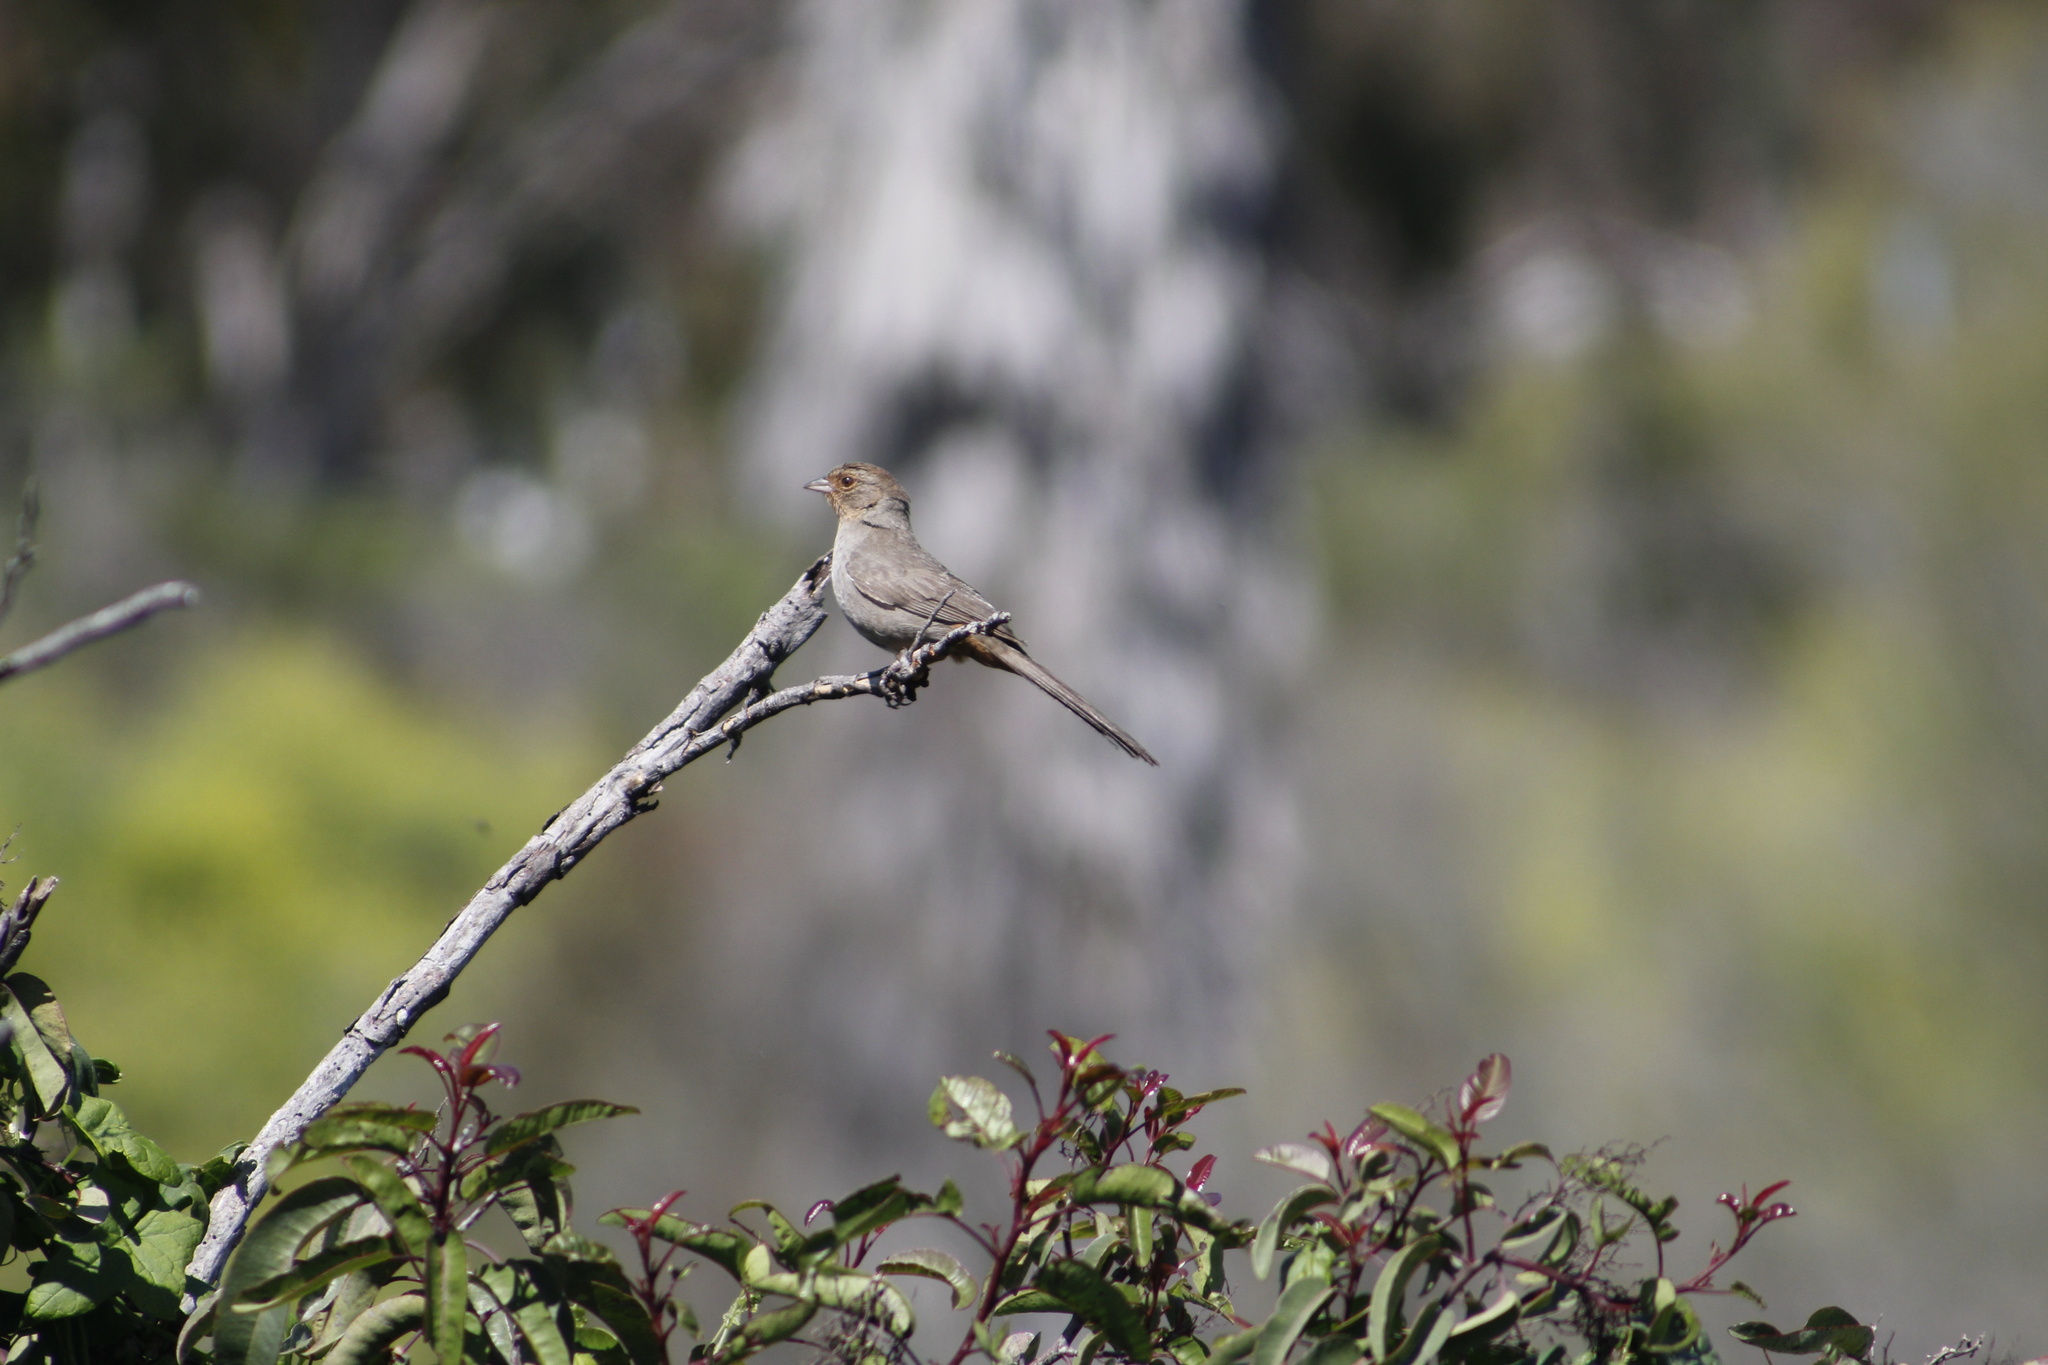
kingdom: Animalia
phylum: Chordata
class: Aves
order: Passeriformes
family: Passerellidae
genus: Melozone
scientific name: Melozone crissalis
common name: California towhee
